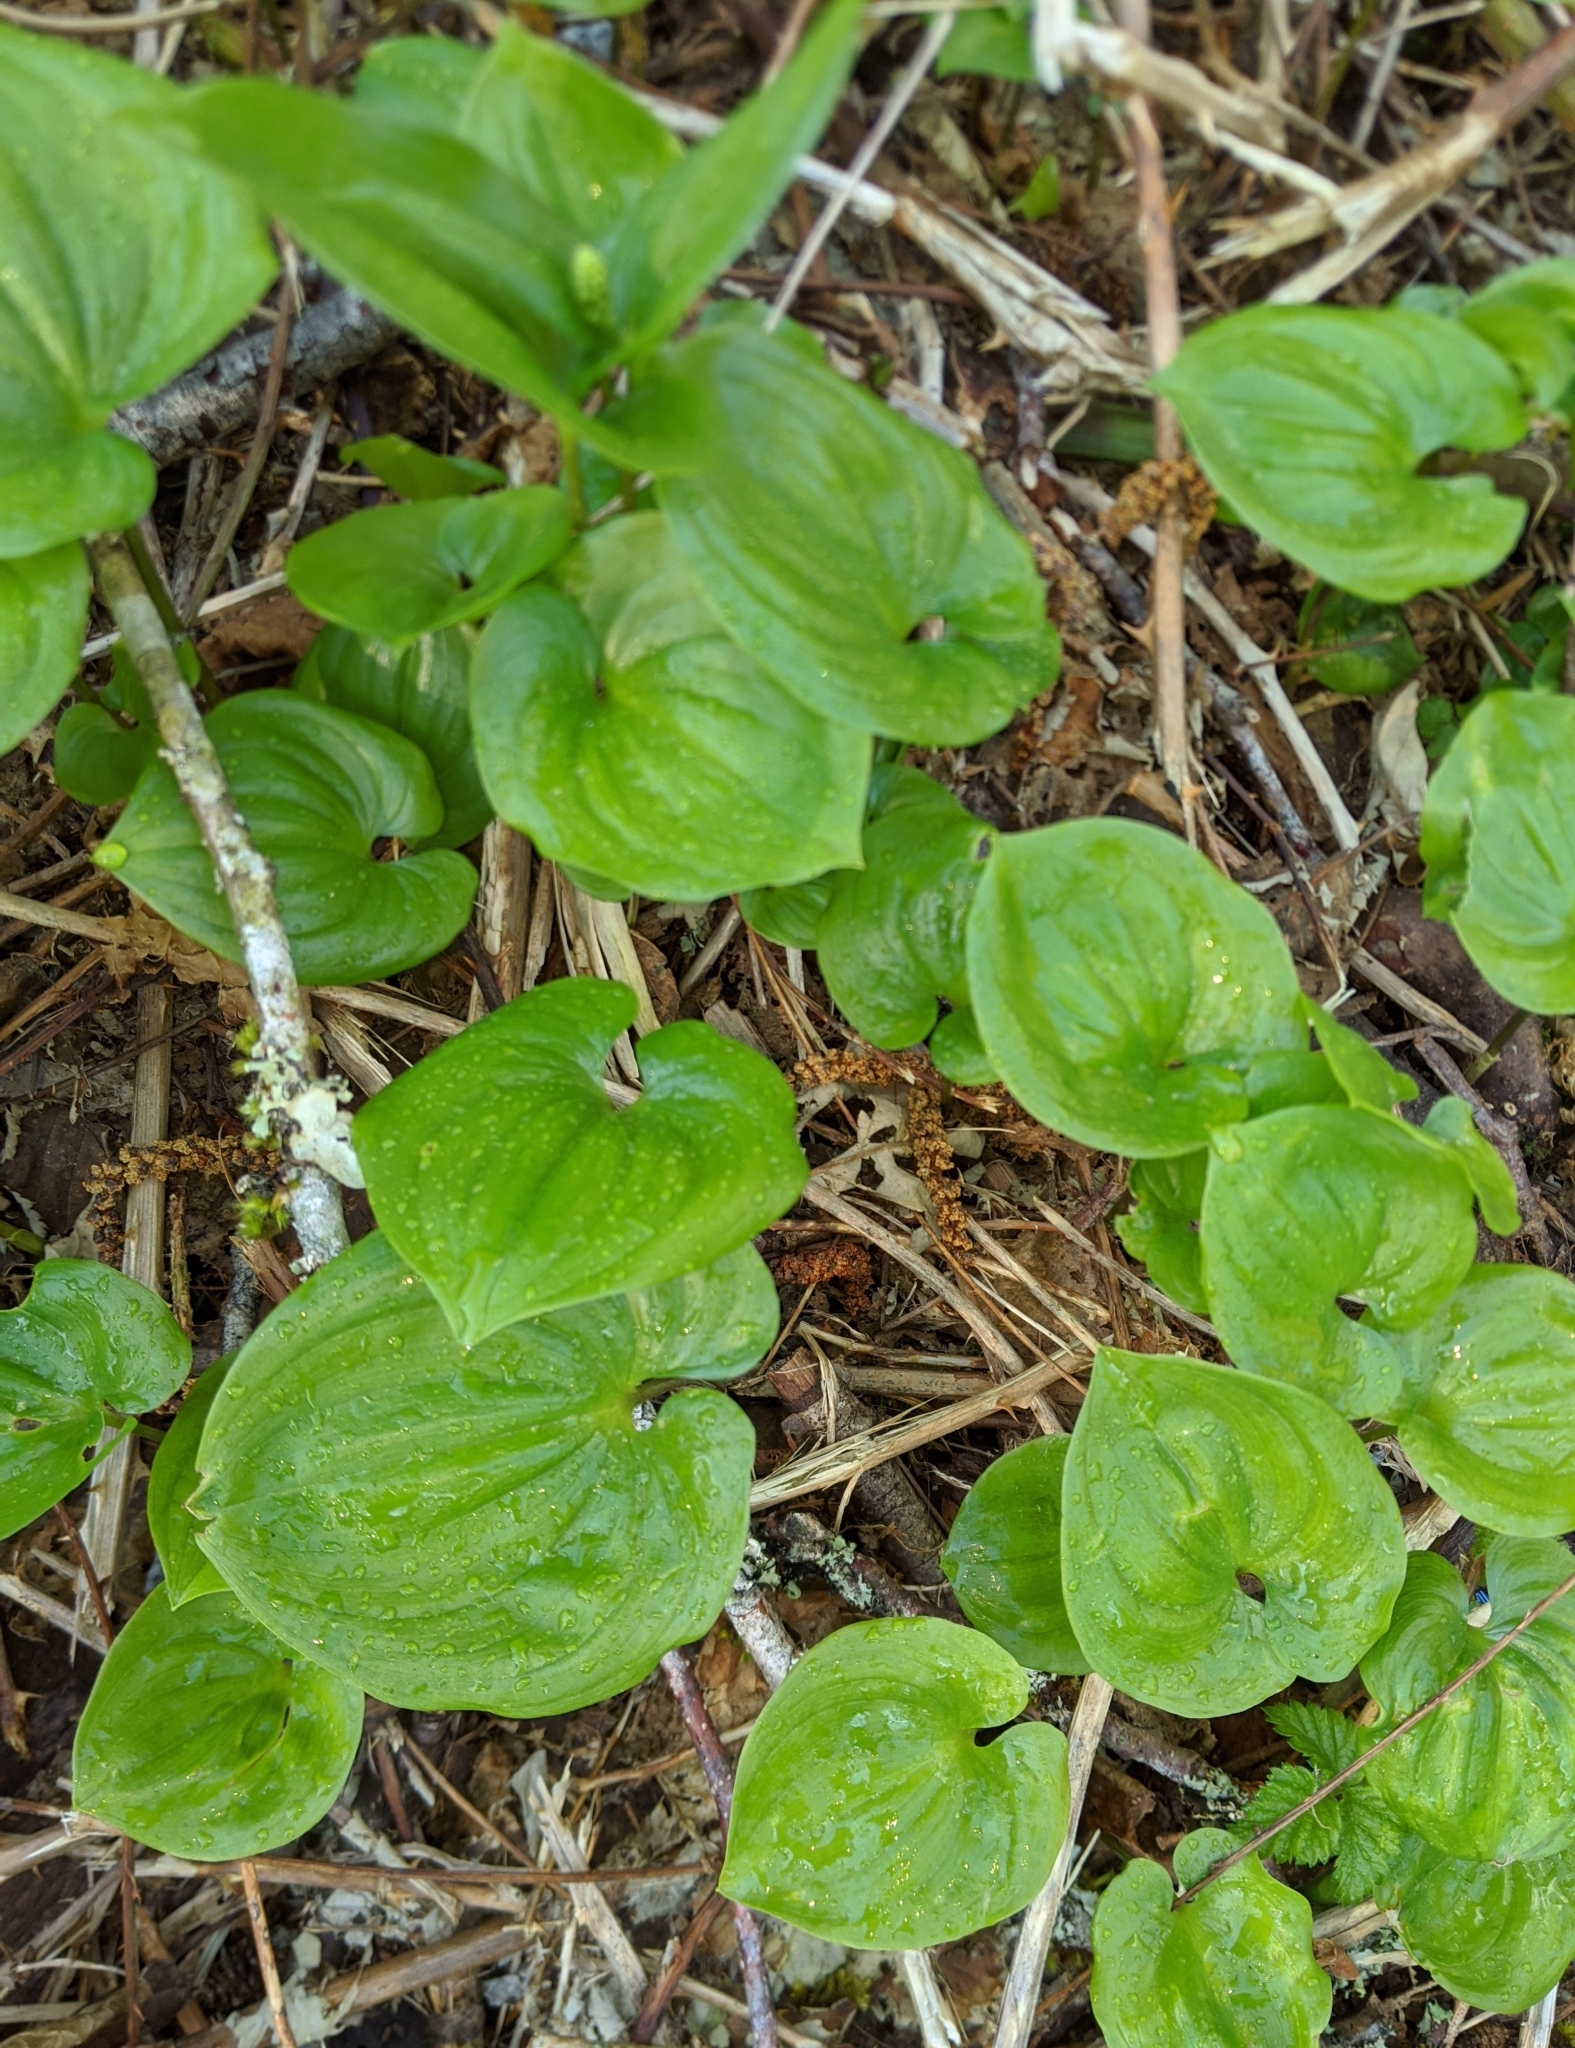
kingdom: Plantae
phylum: Tracheophyta
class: Liliopsida
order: Asparagales
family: Asparagaceae
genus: Maianthemum
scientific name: Maianthemum dilatatum
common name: False lily-of-the-valley
